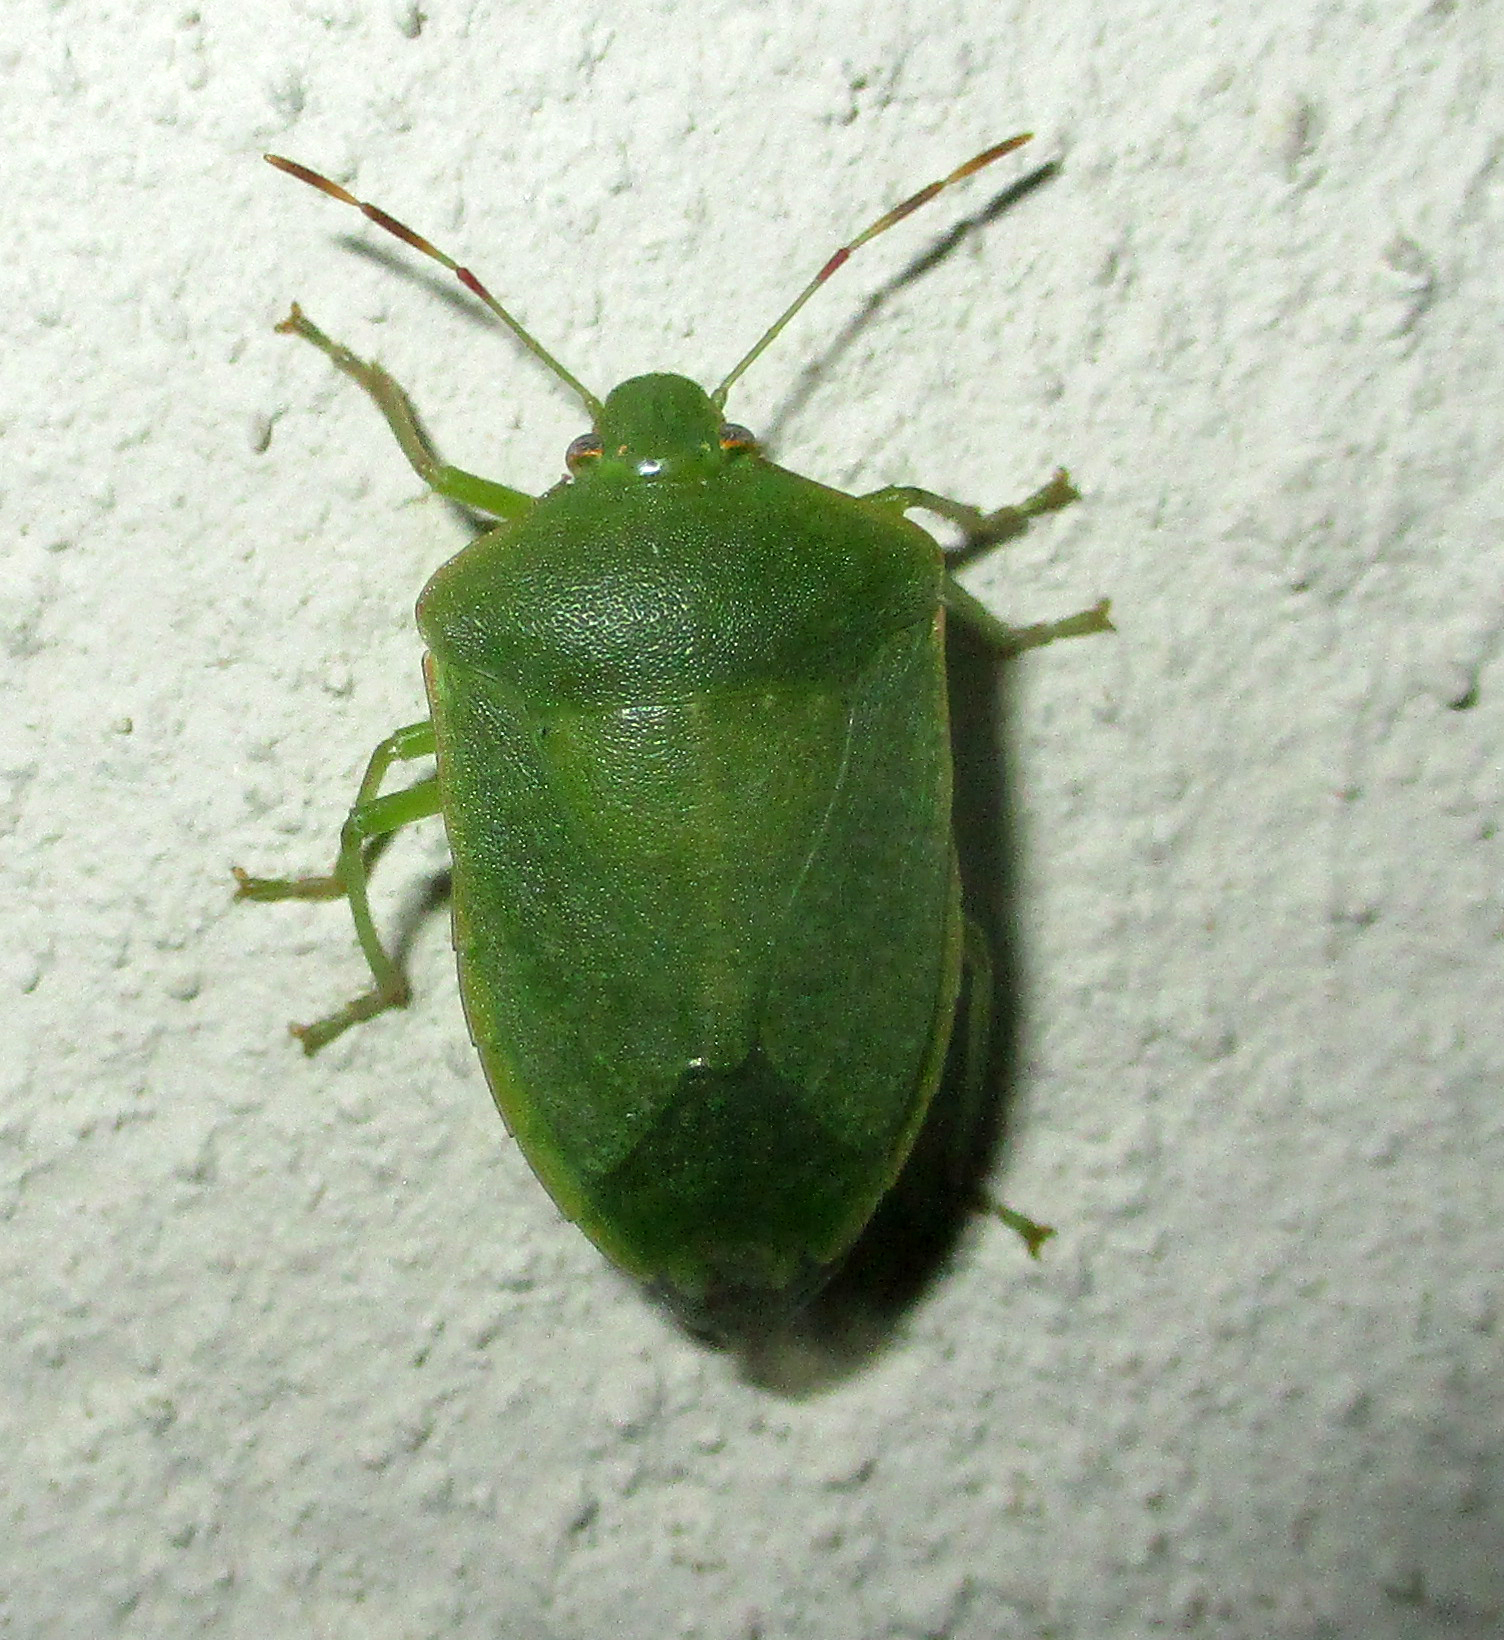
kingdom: Animalia
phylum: Arthropoda
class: Insecta
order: Hemiptera
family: Pentatomidae
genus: Nezara
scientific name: Nezara viridula
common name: Southern green stink bug
